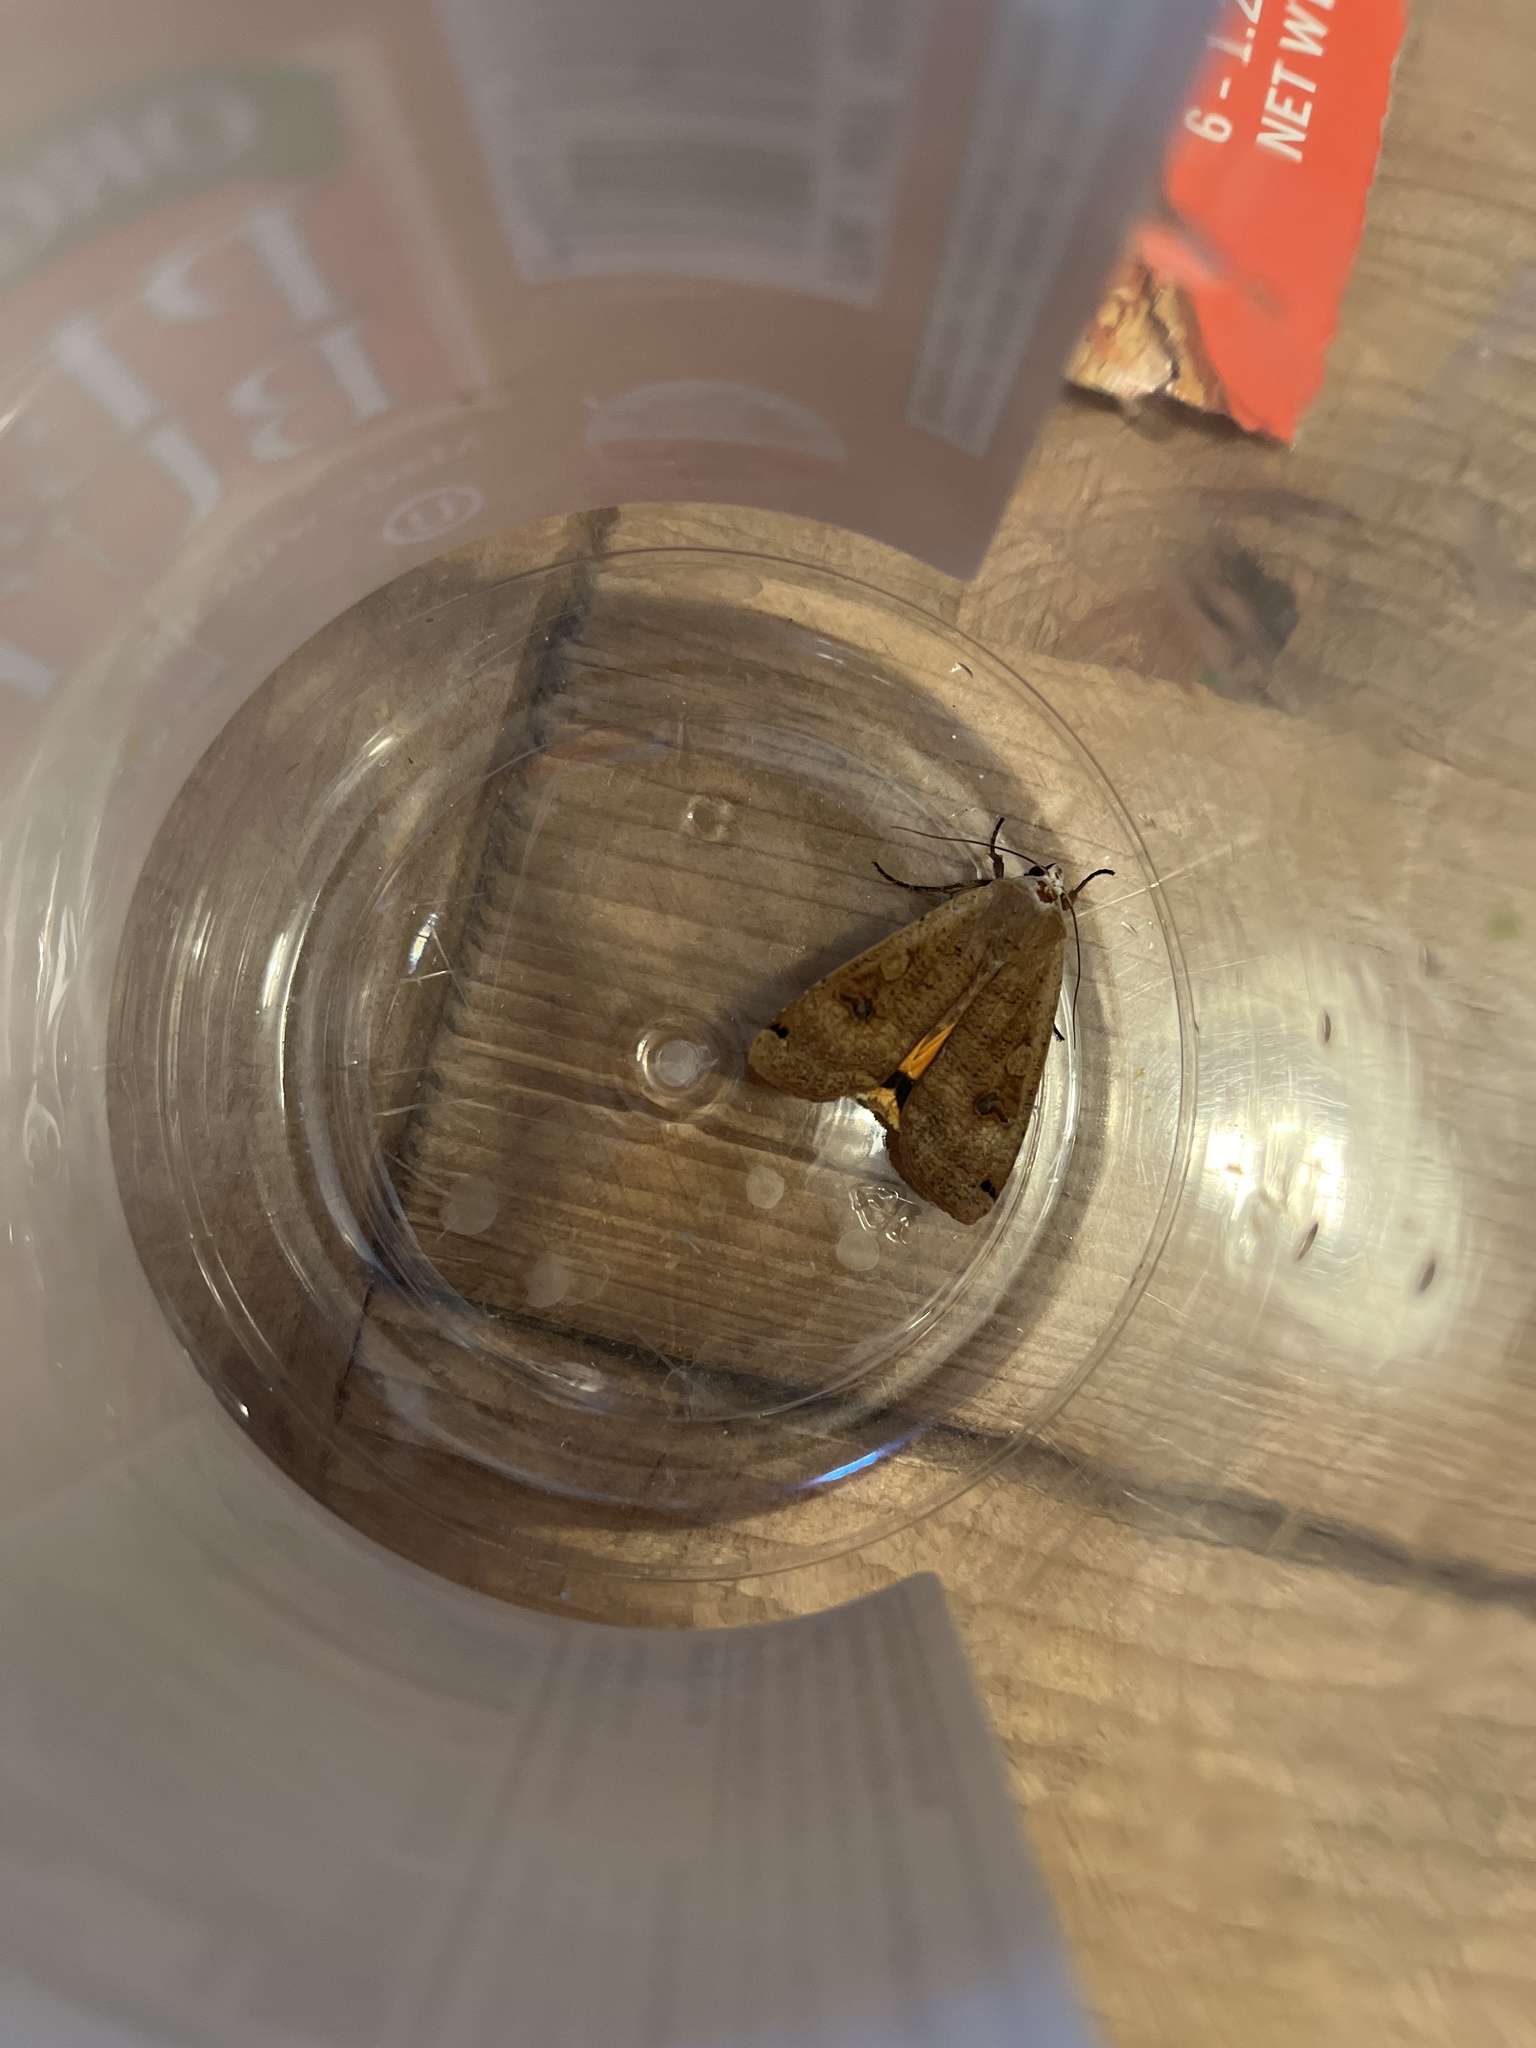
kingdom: Animalia
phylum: Arthropoda
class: Insecta
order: Lepidoptera
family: Noctuidae
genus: Noctua
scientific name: Noctua pronuba
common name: Large yellow underwing
